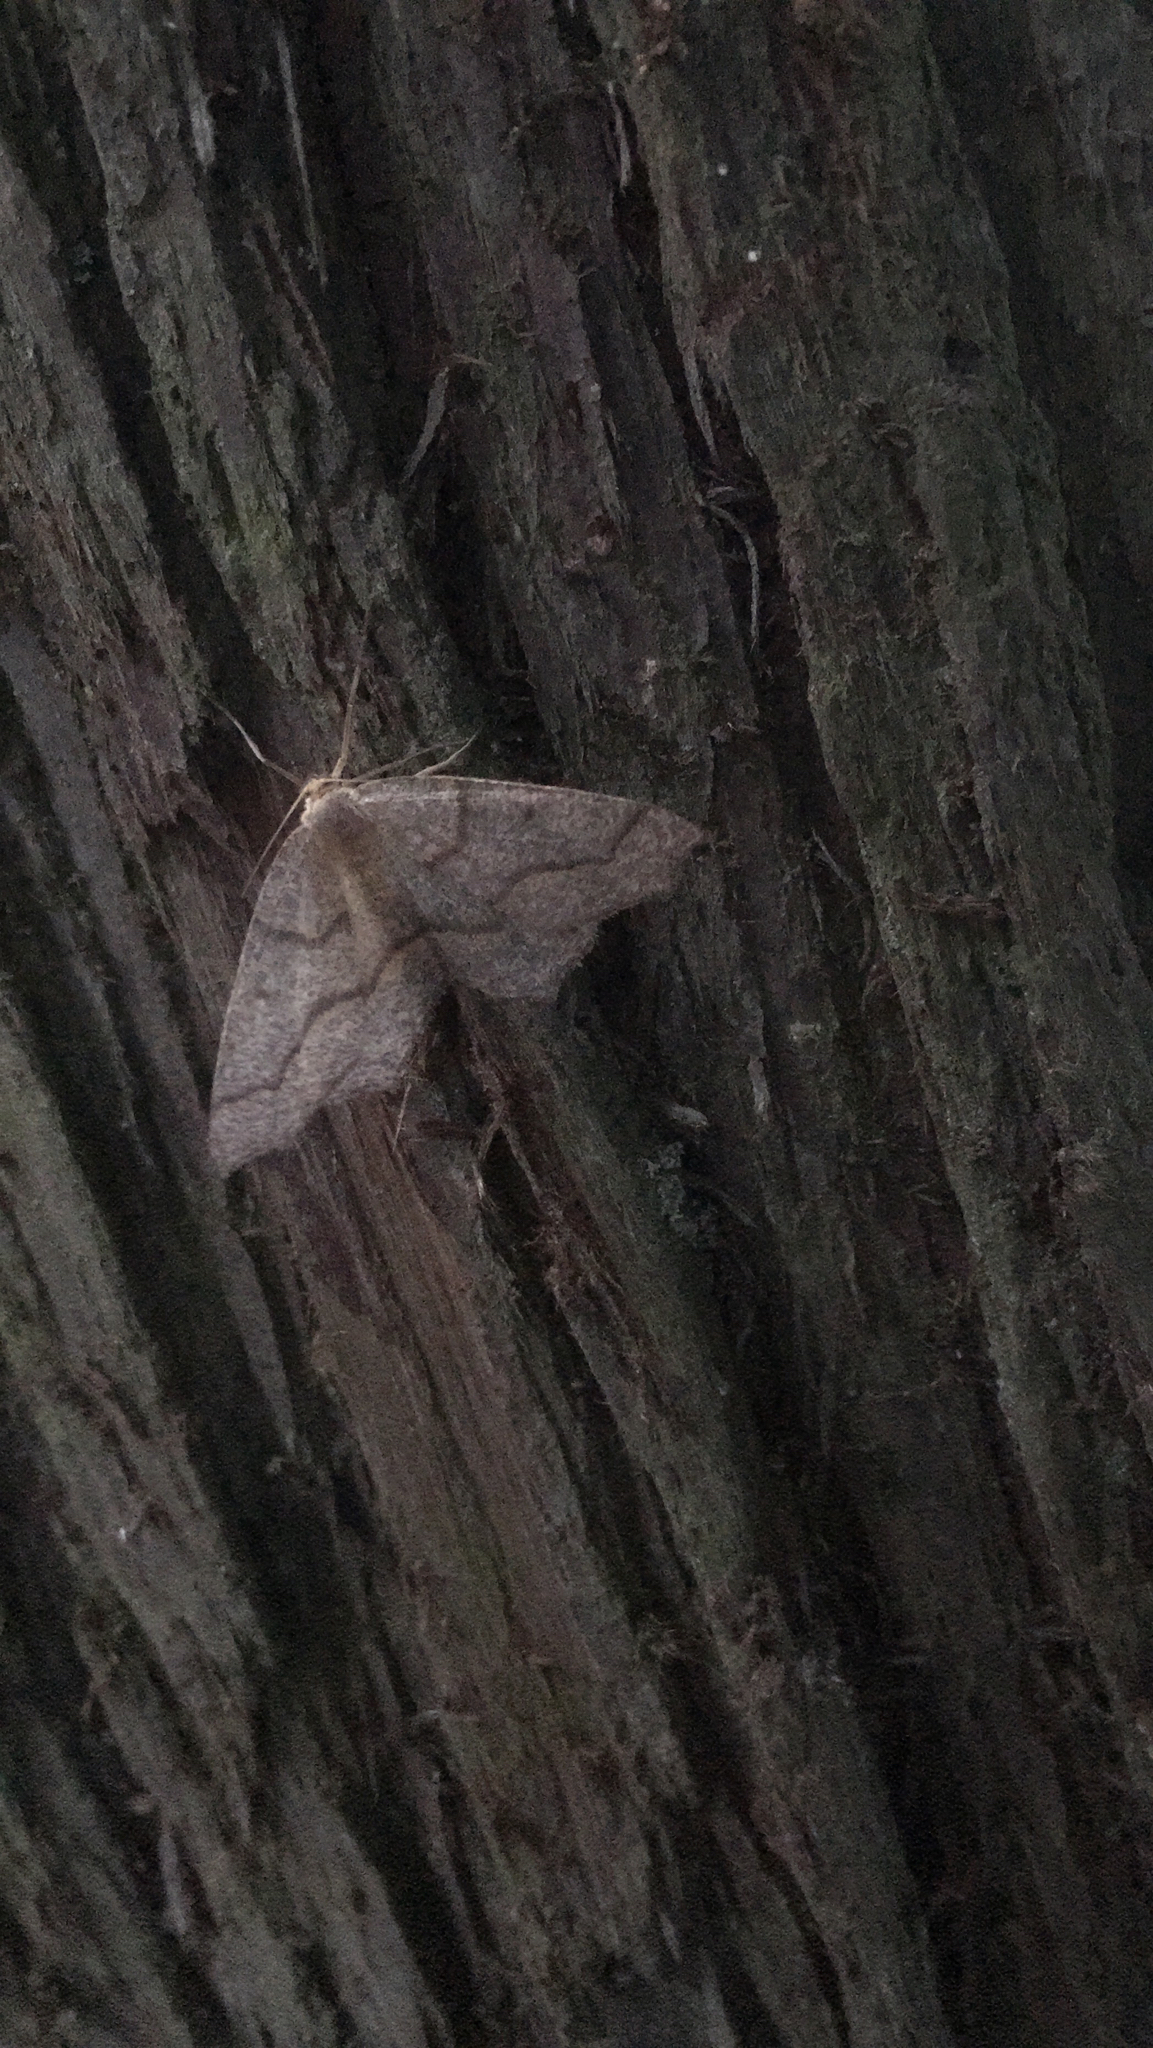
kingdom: Animalia
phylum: Arthropoda
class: Insecta
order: Lepidoptera
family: Geometridae
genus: Lambdina
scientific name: Lambdina fiscellaria
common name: Hemlock looper
